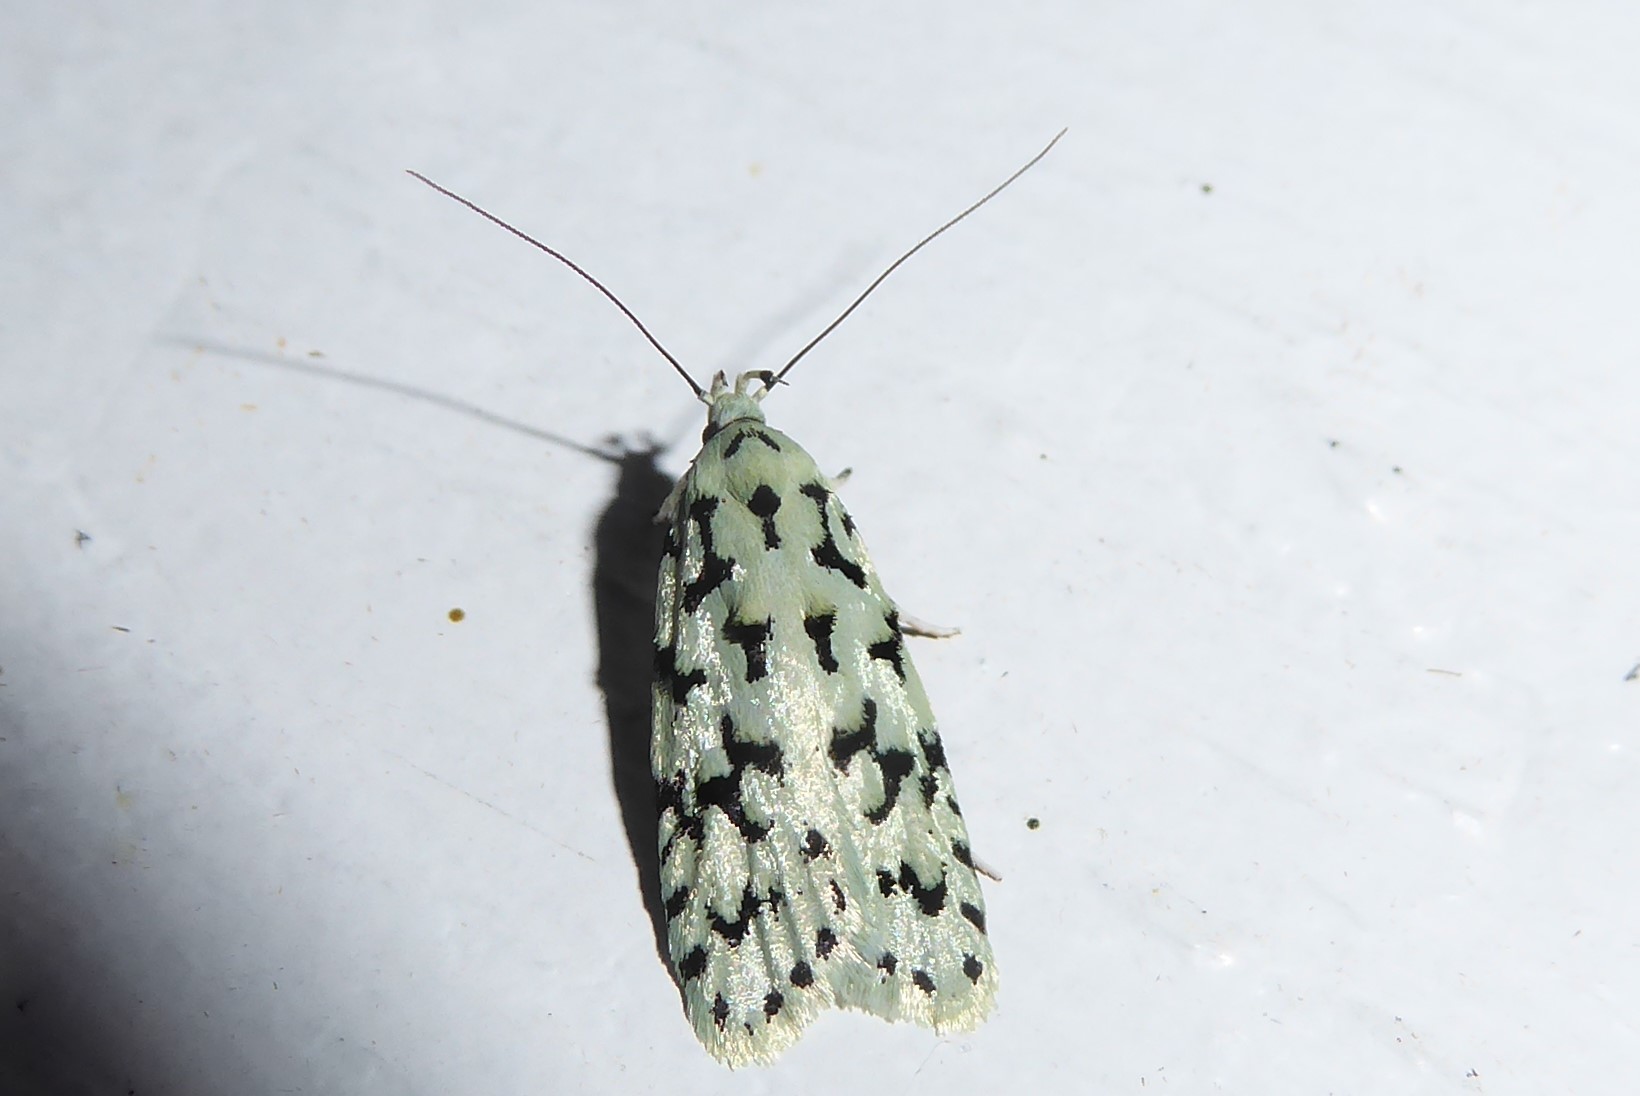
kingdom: Animalia
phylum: Arthropoda
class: Insecta
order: Lepidoptera
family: Oecophoridae
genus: Izatha
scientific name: Izatha huttoni
